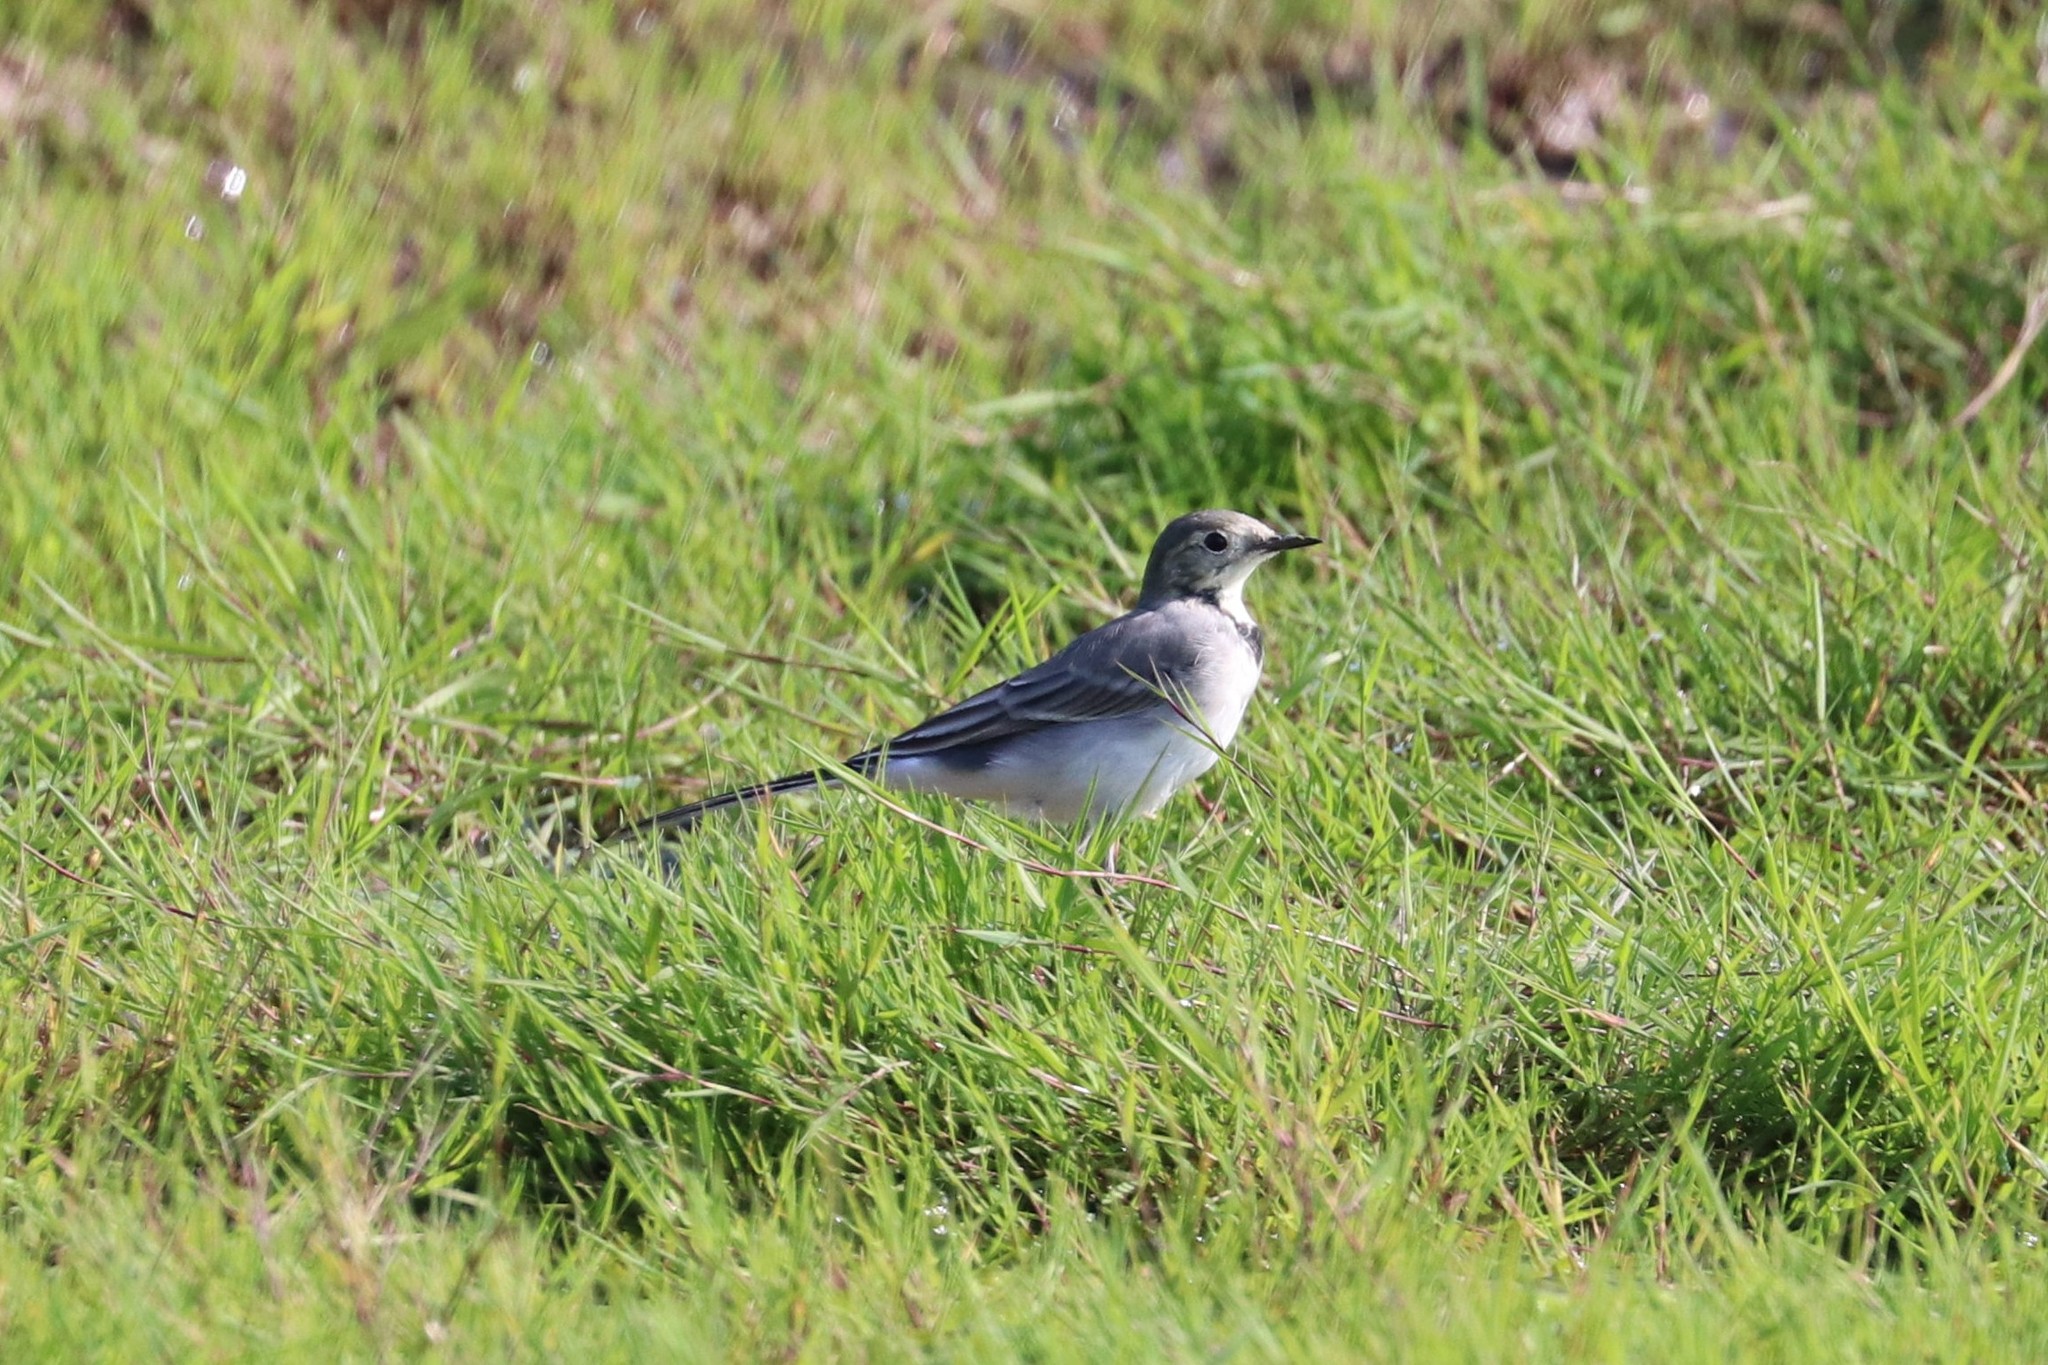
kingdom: Animalia
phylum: Chordata
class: Aves
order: Passeriformes
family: Motacillidae
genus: Motacilla
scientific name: Motacilla alba
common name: White wagtail
